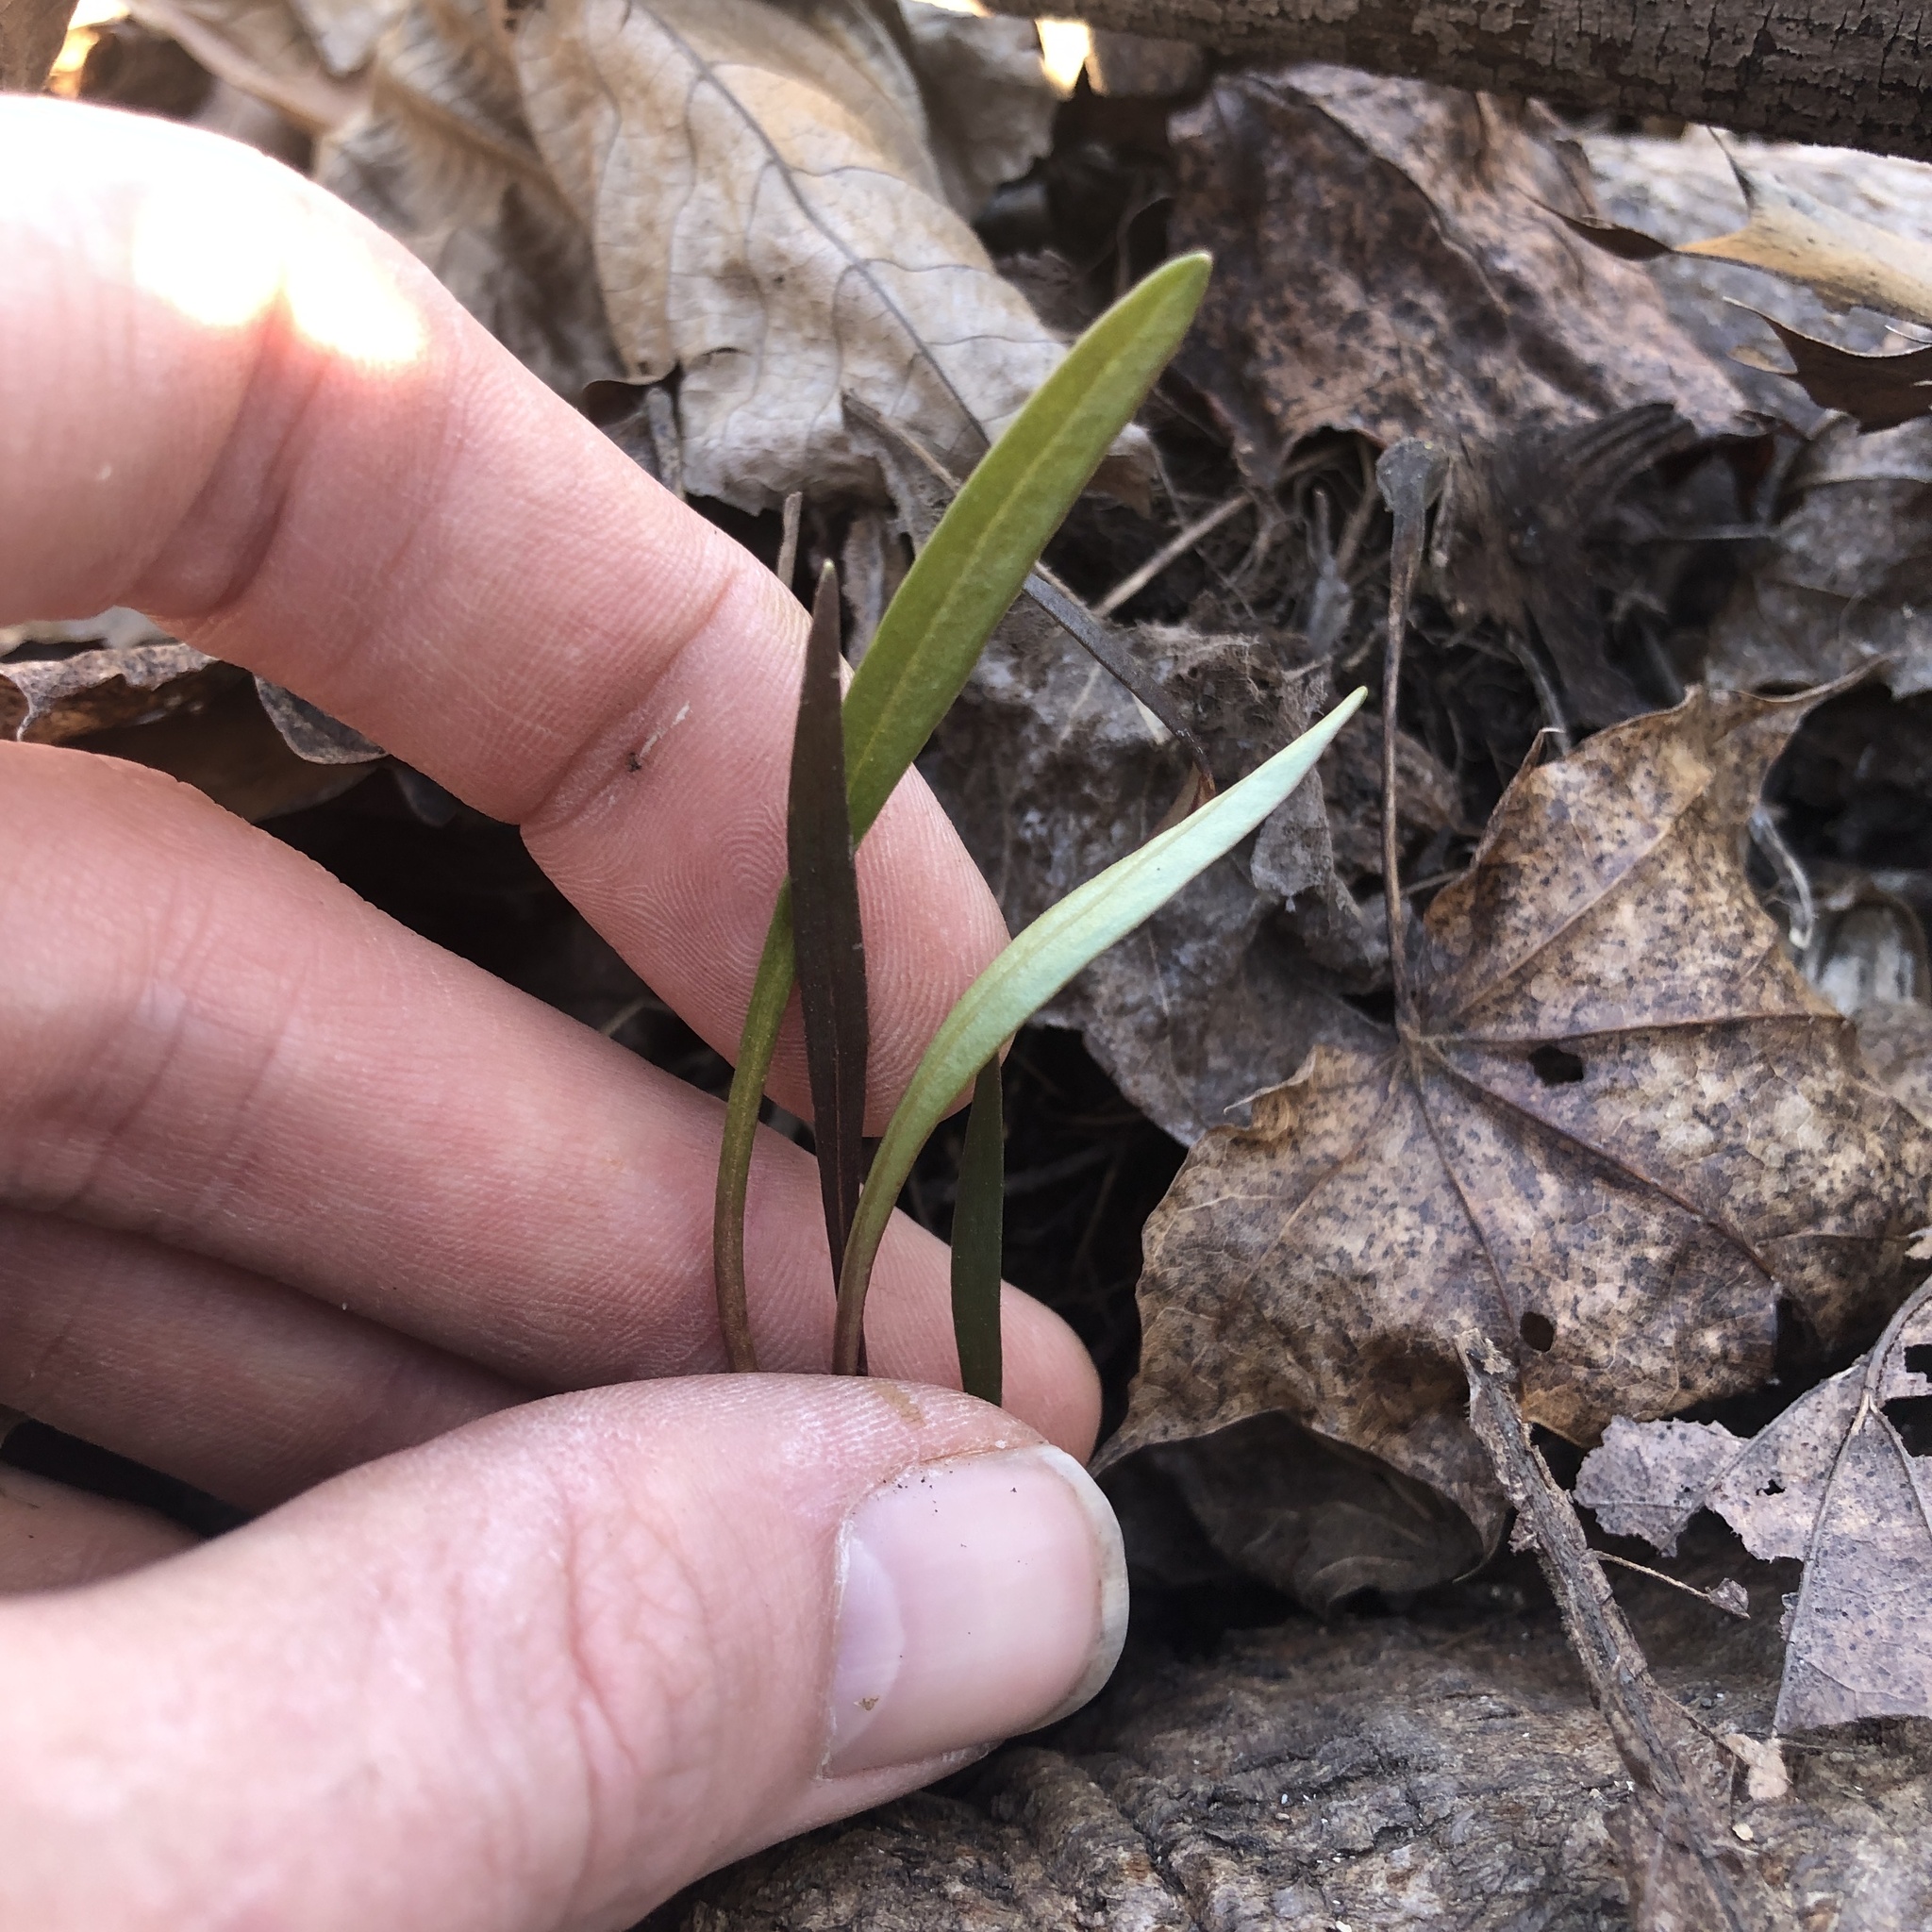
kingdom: Plantae
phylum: Tracheophyta
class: Magnoliopsida
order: Caryophyllales
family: Montiaceae
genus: Claytonia
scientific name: Claytonia virginica
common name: Virginia springbeauty
